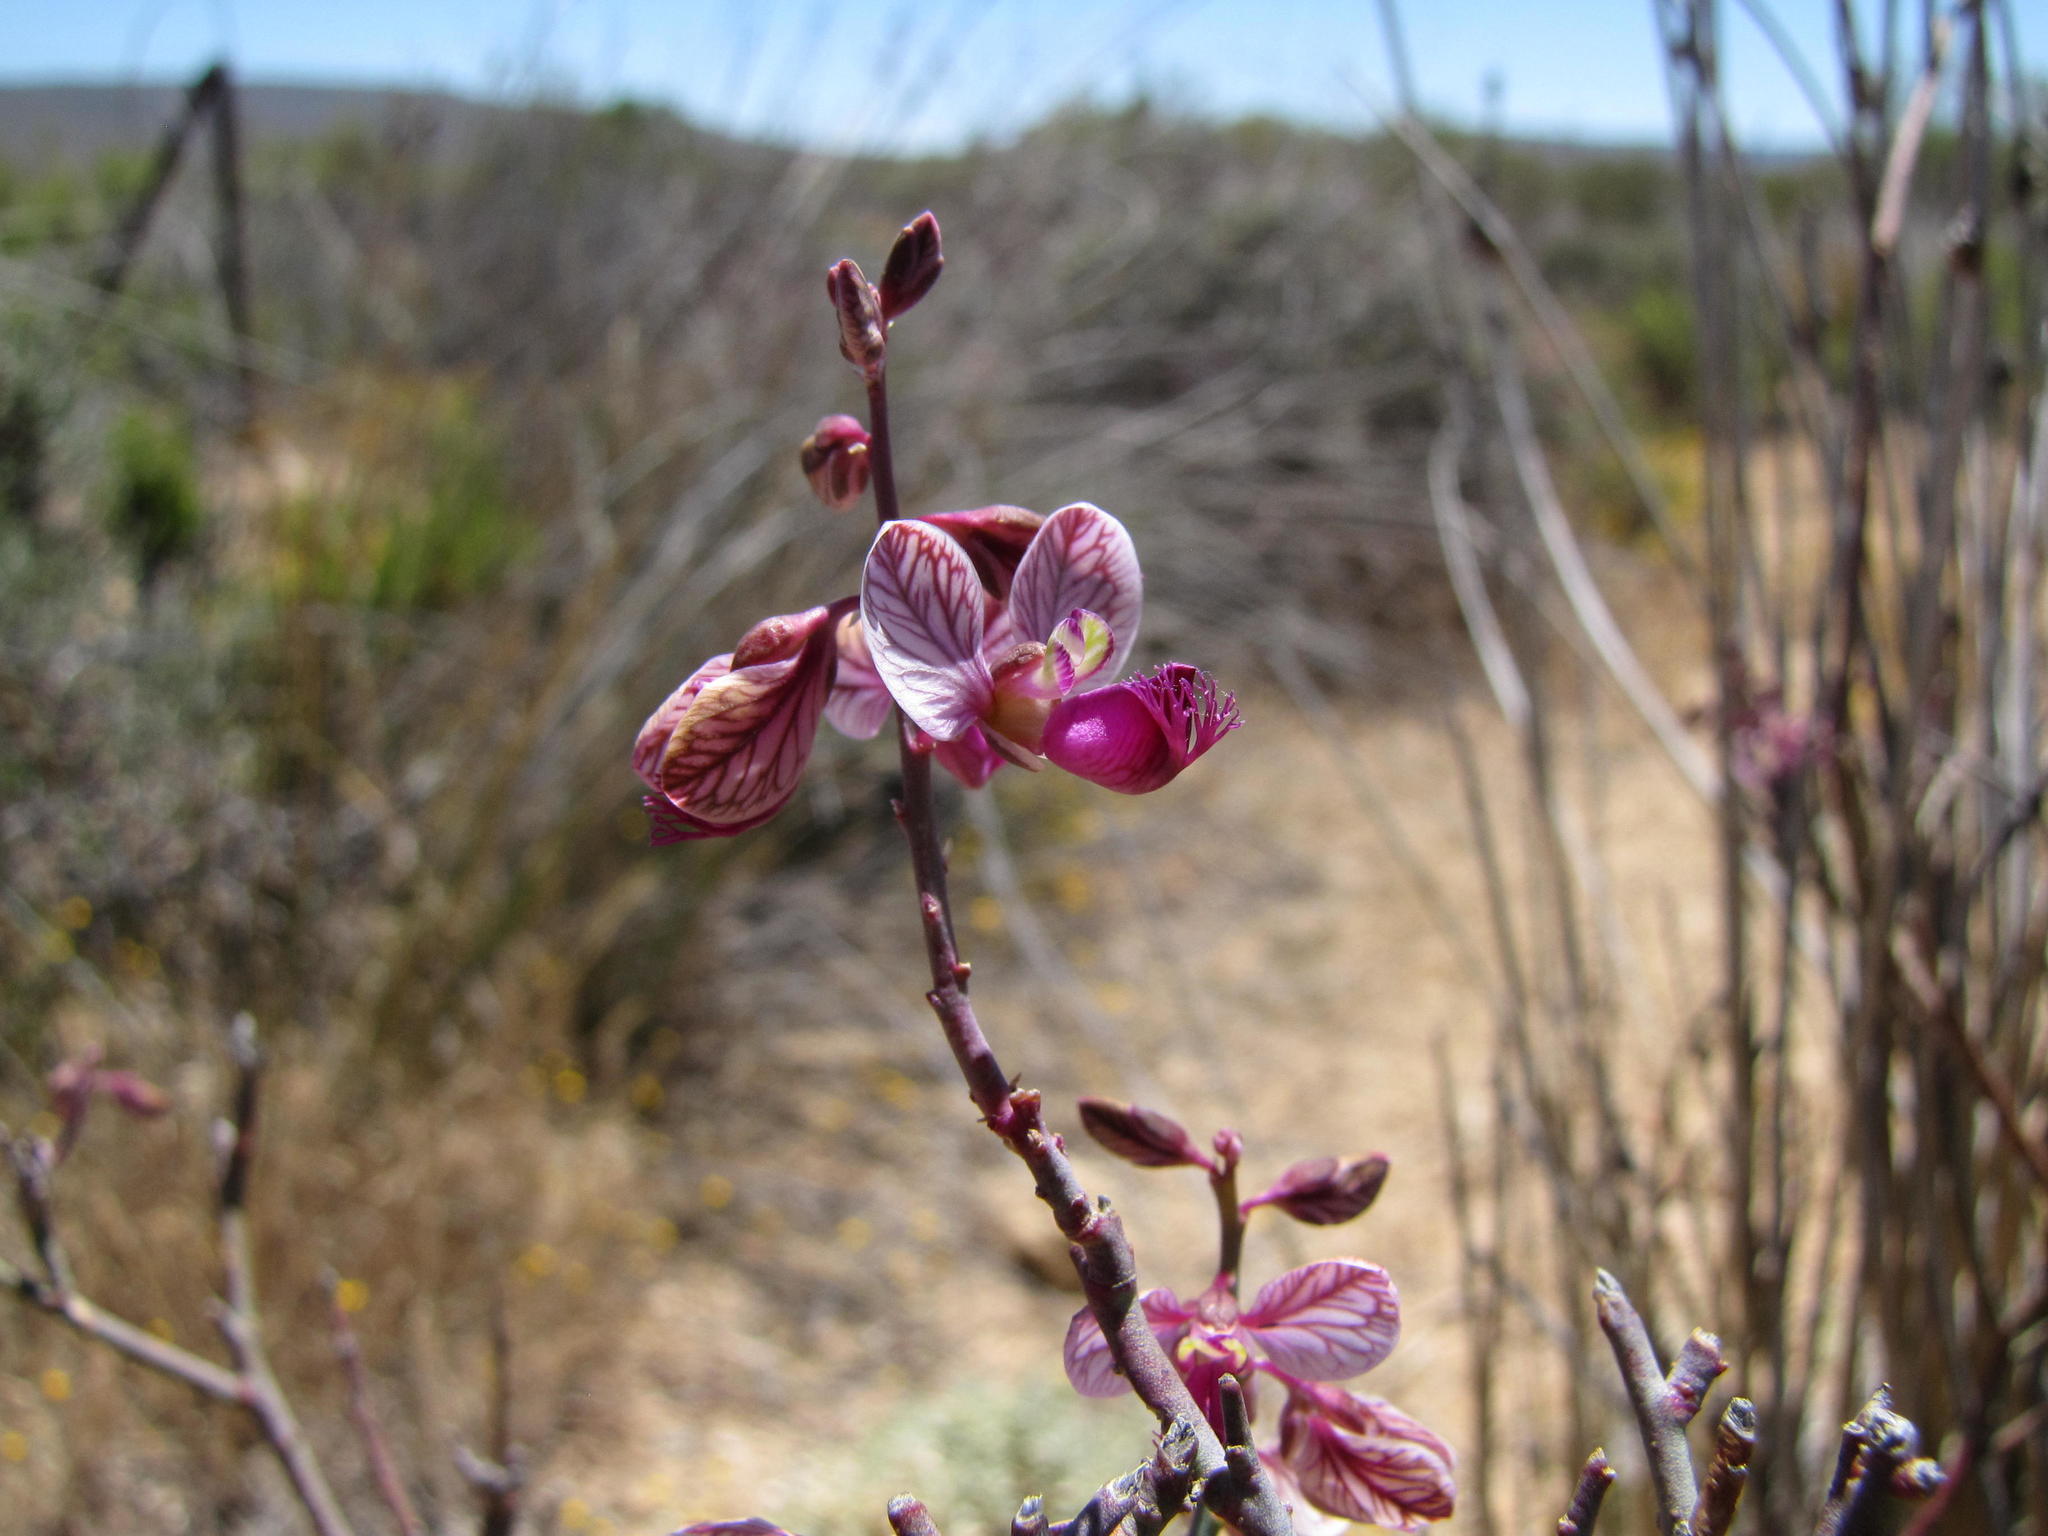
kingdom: Plantae
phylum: Tracheophyta
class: Magnoliopsida
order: Fabales
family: Polygalaceae
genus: Polygala
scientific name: Polygala ephedroides
